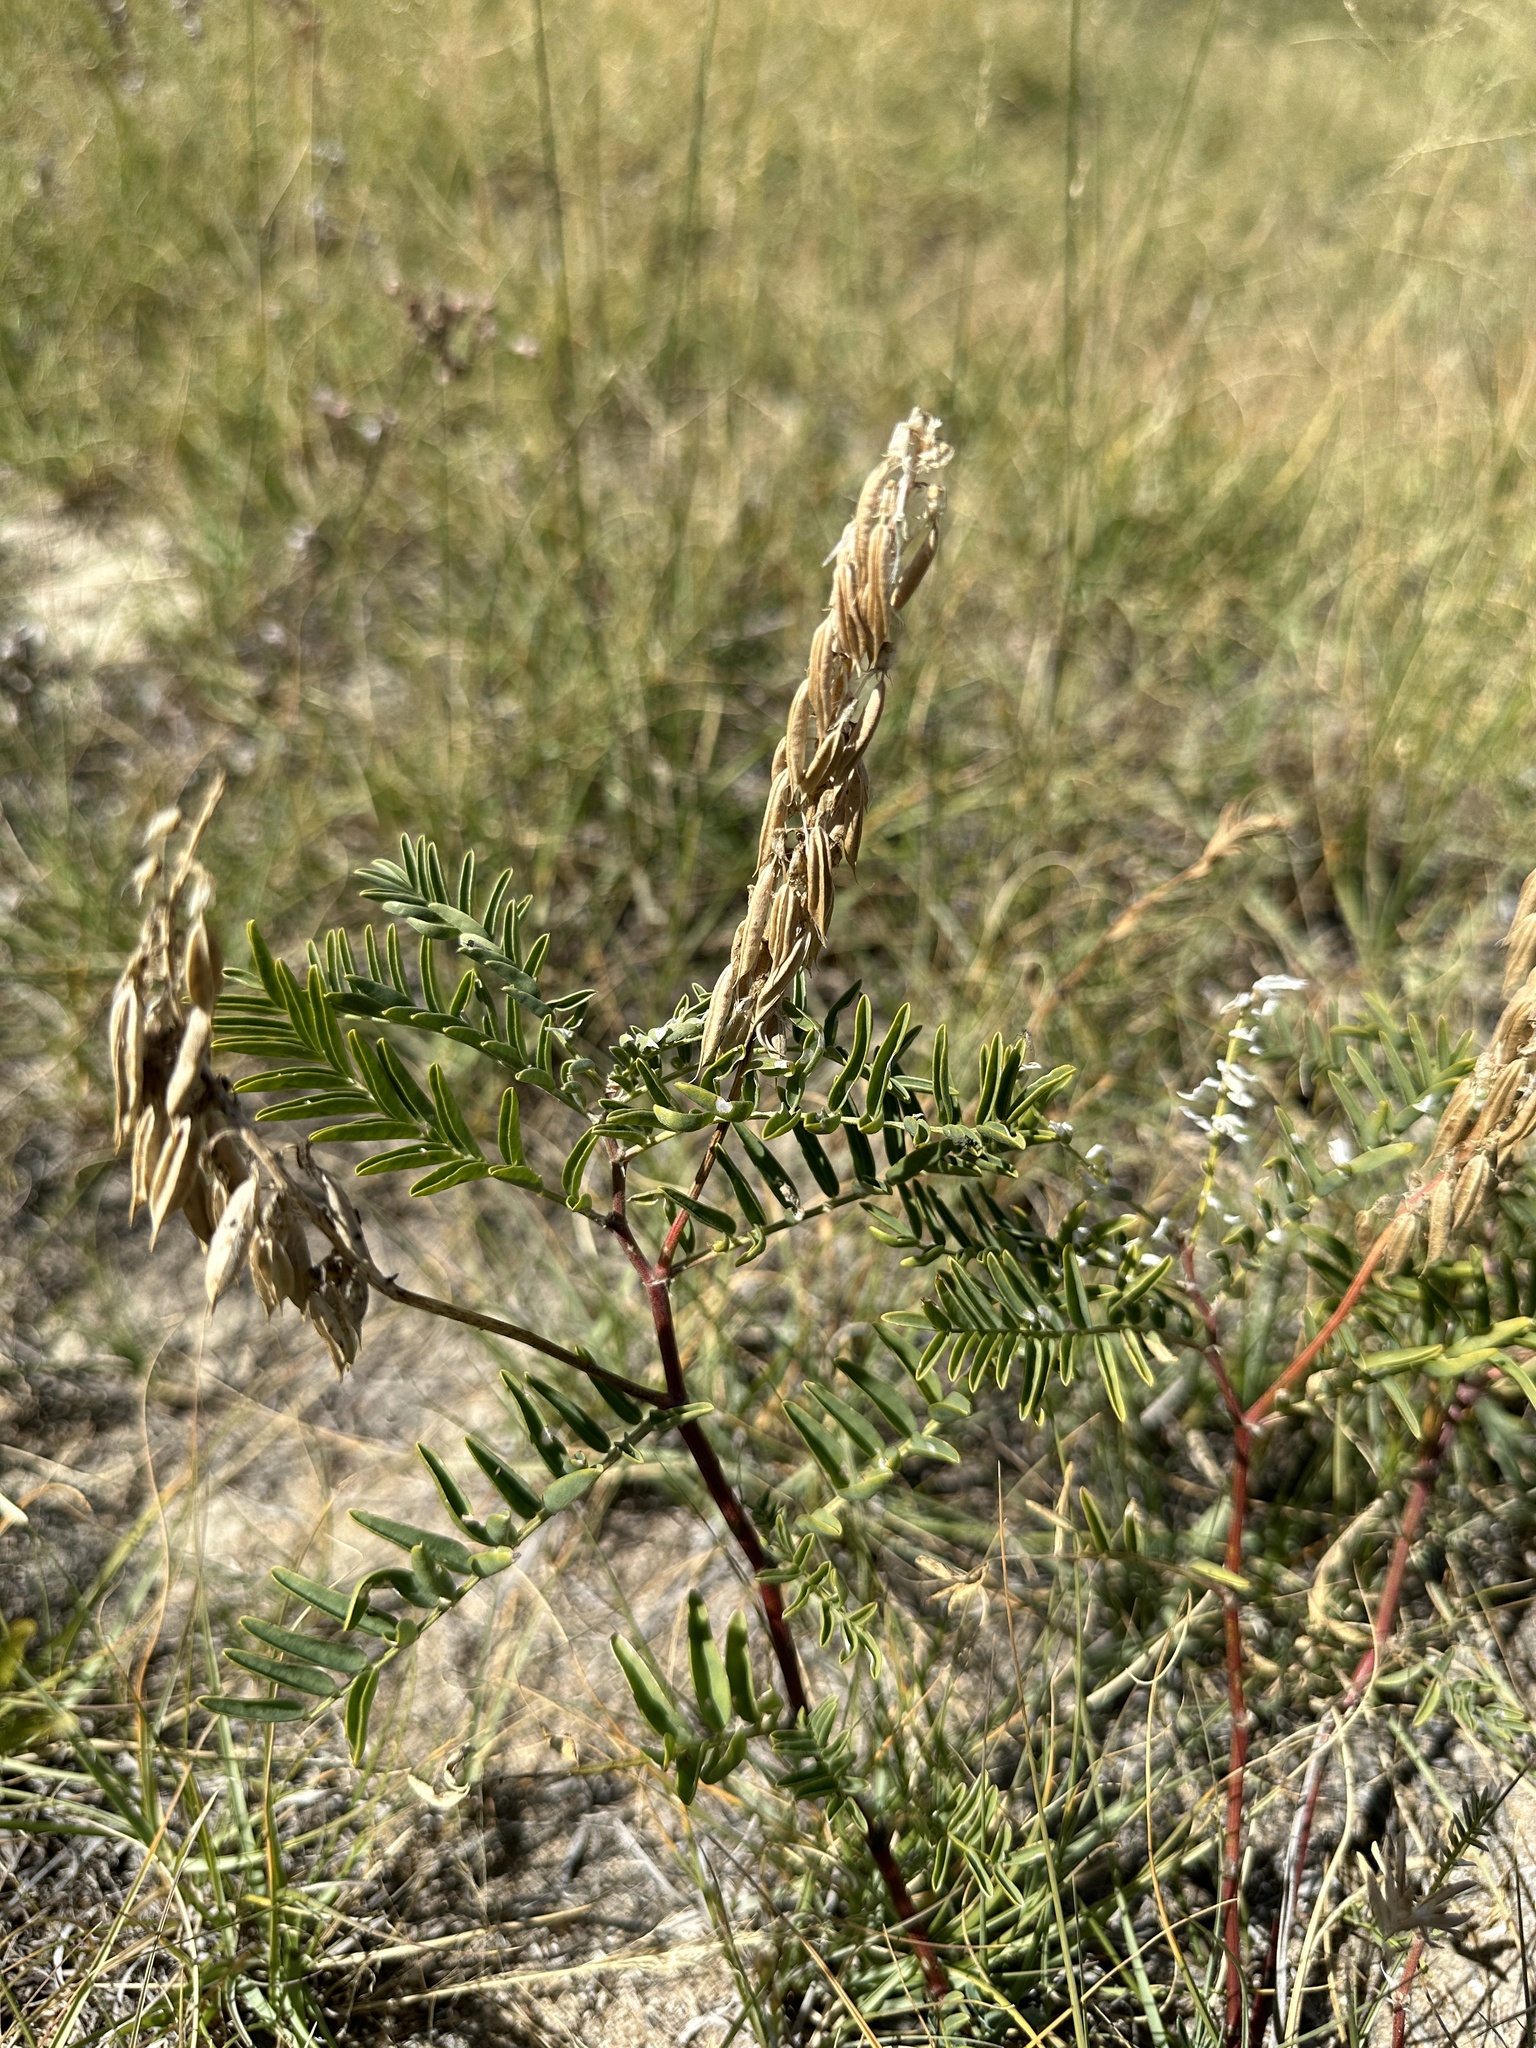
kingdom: Plantae
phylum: Tracheophyta
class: Magnoliopsida
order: Fabales
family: Fabaceae
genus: Astragalus
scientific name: Astragalus bisulcatus
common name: Two-groove milk-vetch
